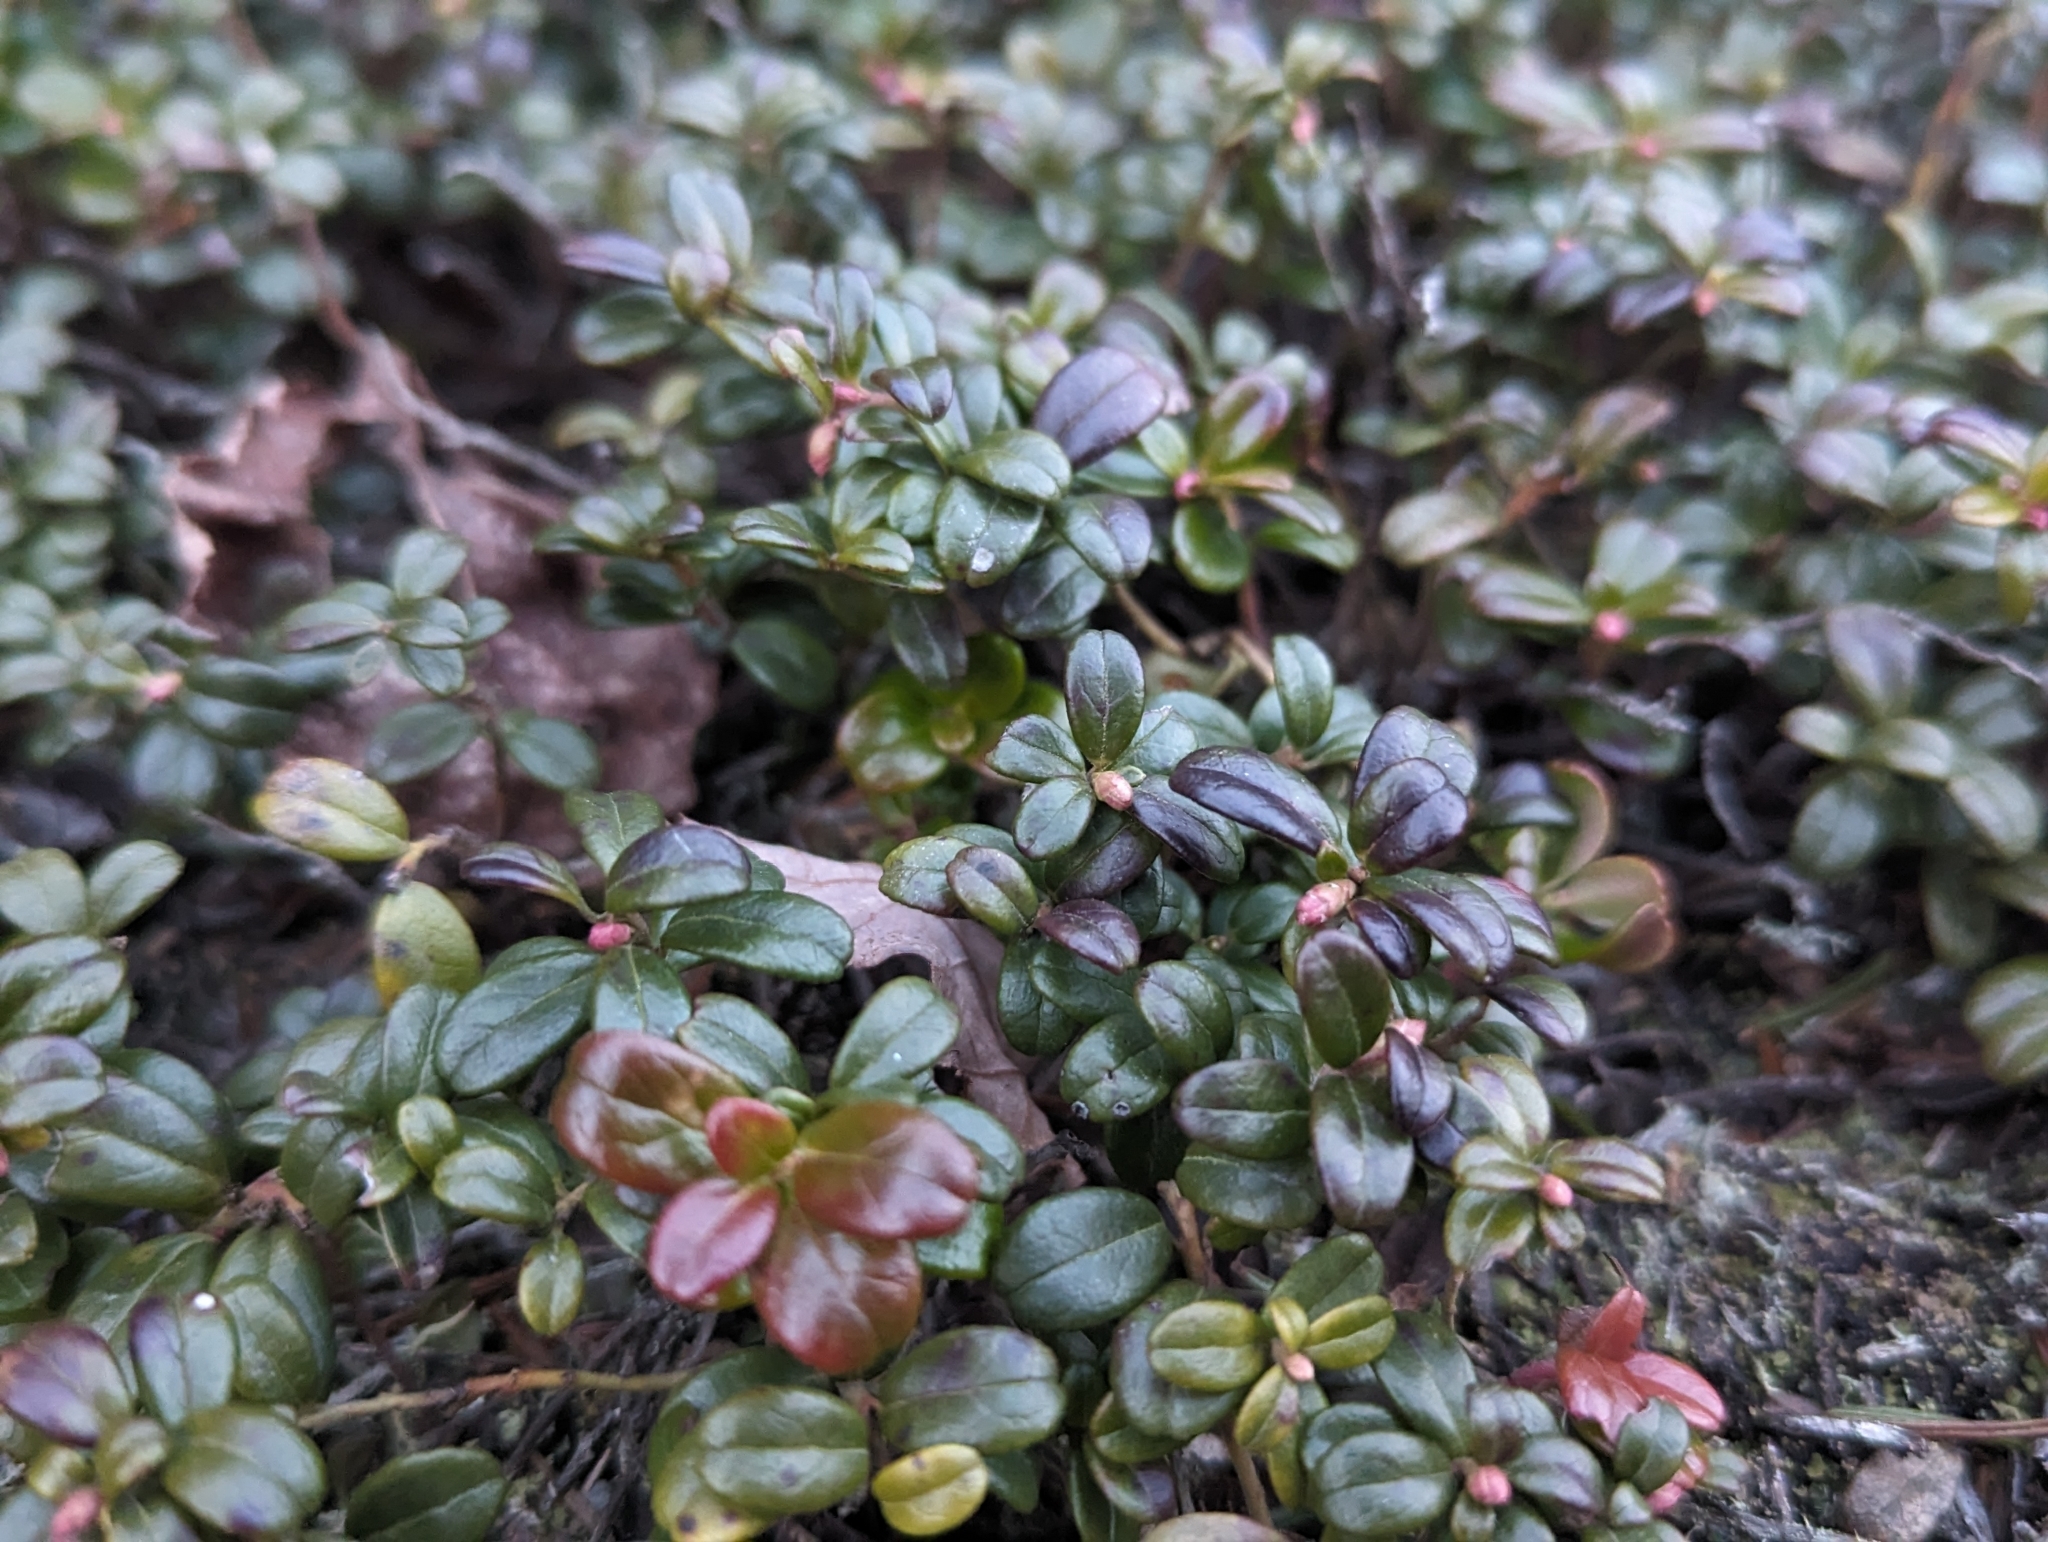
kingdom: Plantae
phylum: Tracheophyta
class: Magnoliopsida
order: Ericales
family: Ericaceae
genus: Vaccinium
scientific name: Vaccinium vitis-idaea
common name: Cowberry
